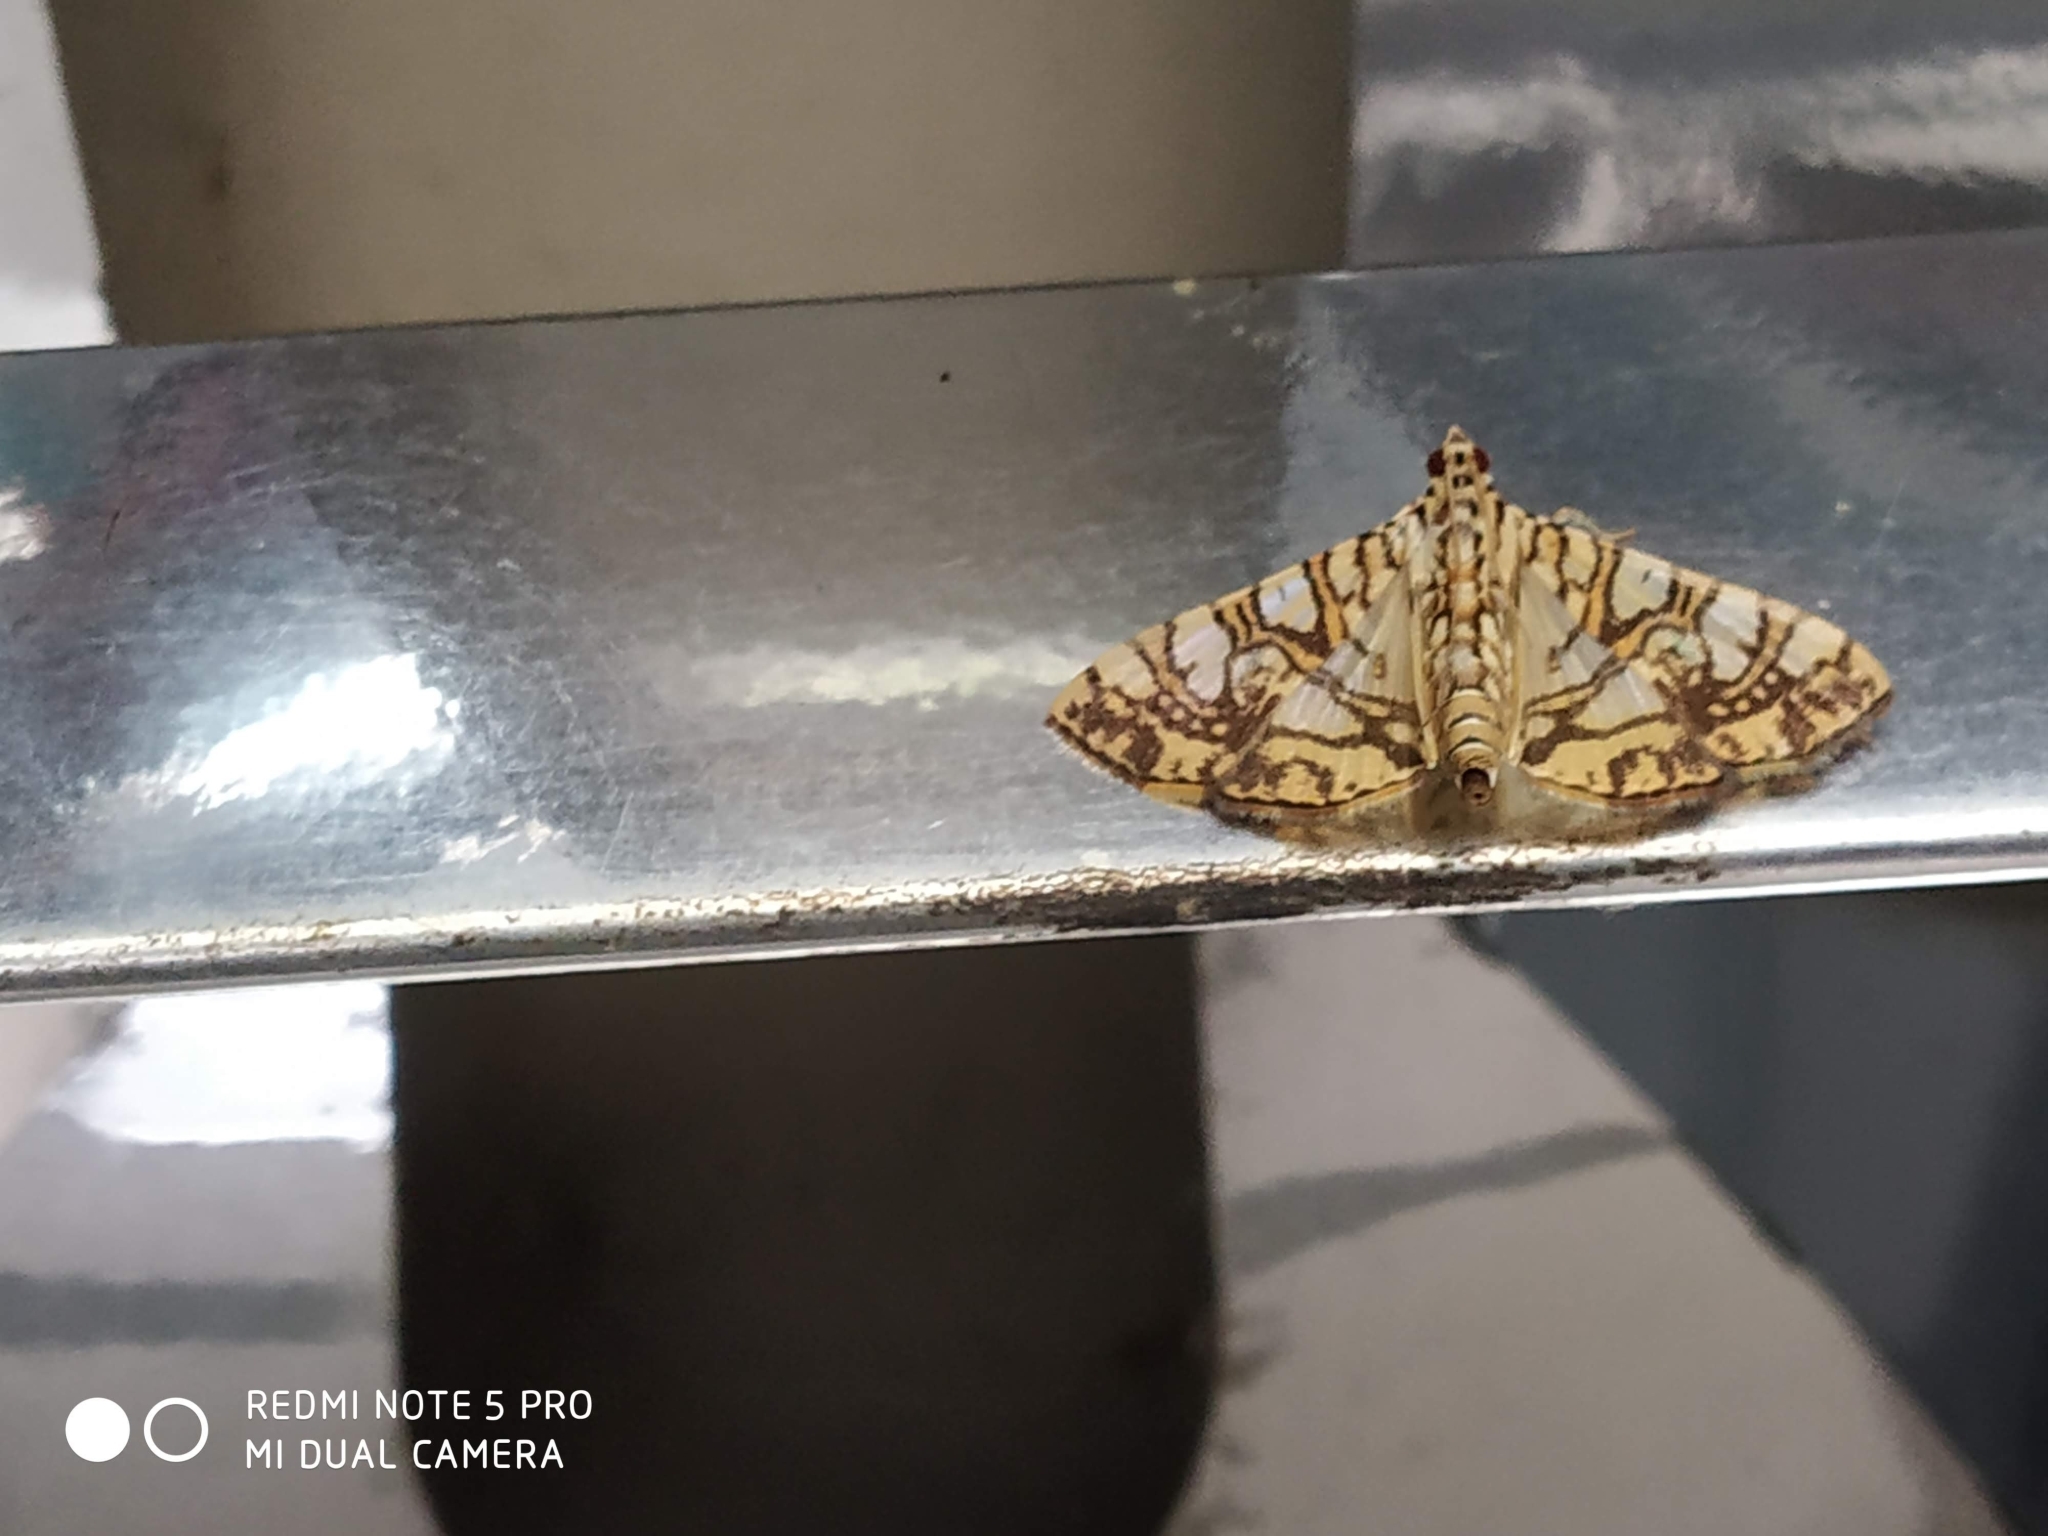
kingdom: Animalia
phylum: Arthropoda
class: Insecta
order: Lepidoptera
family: Crambidae
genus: Glyphodes
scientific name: Glyphodes caesalis
